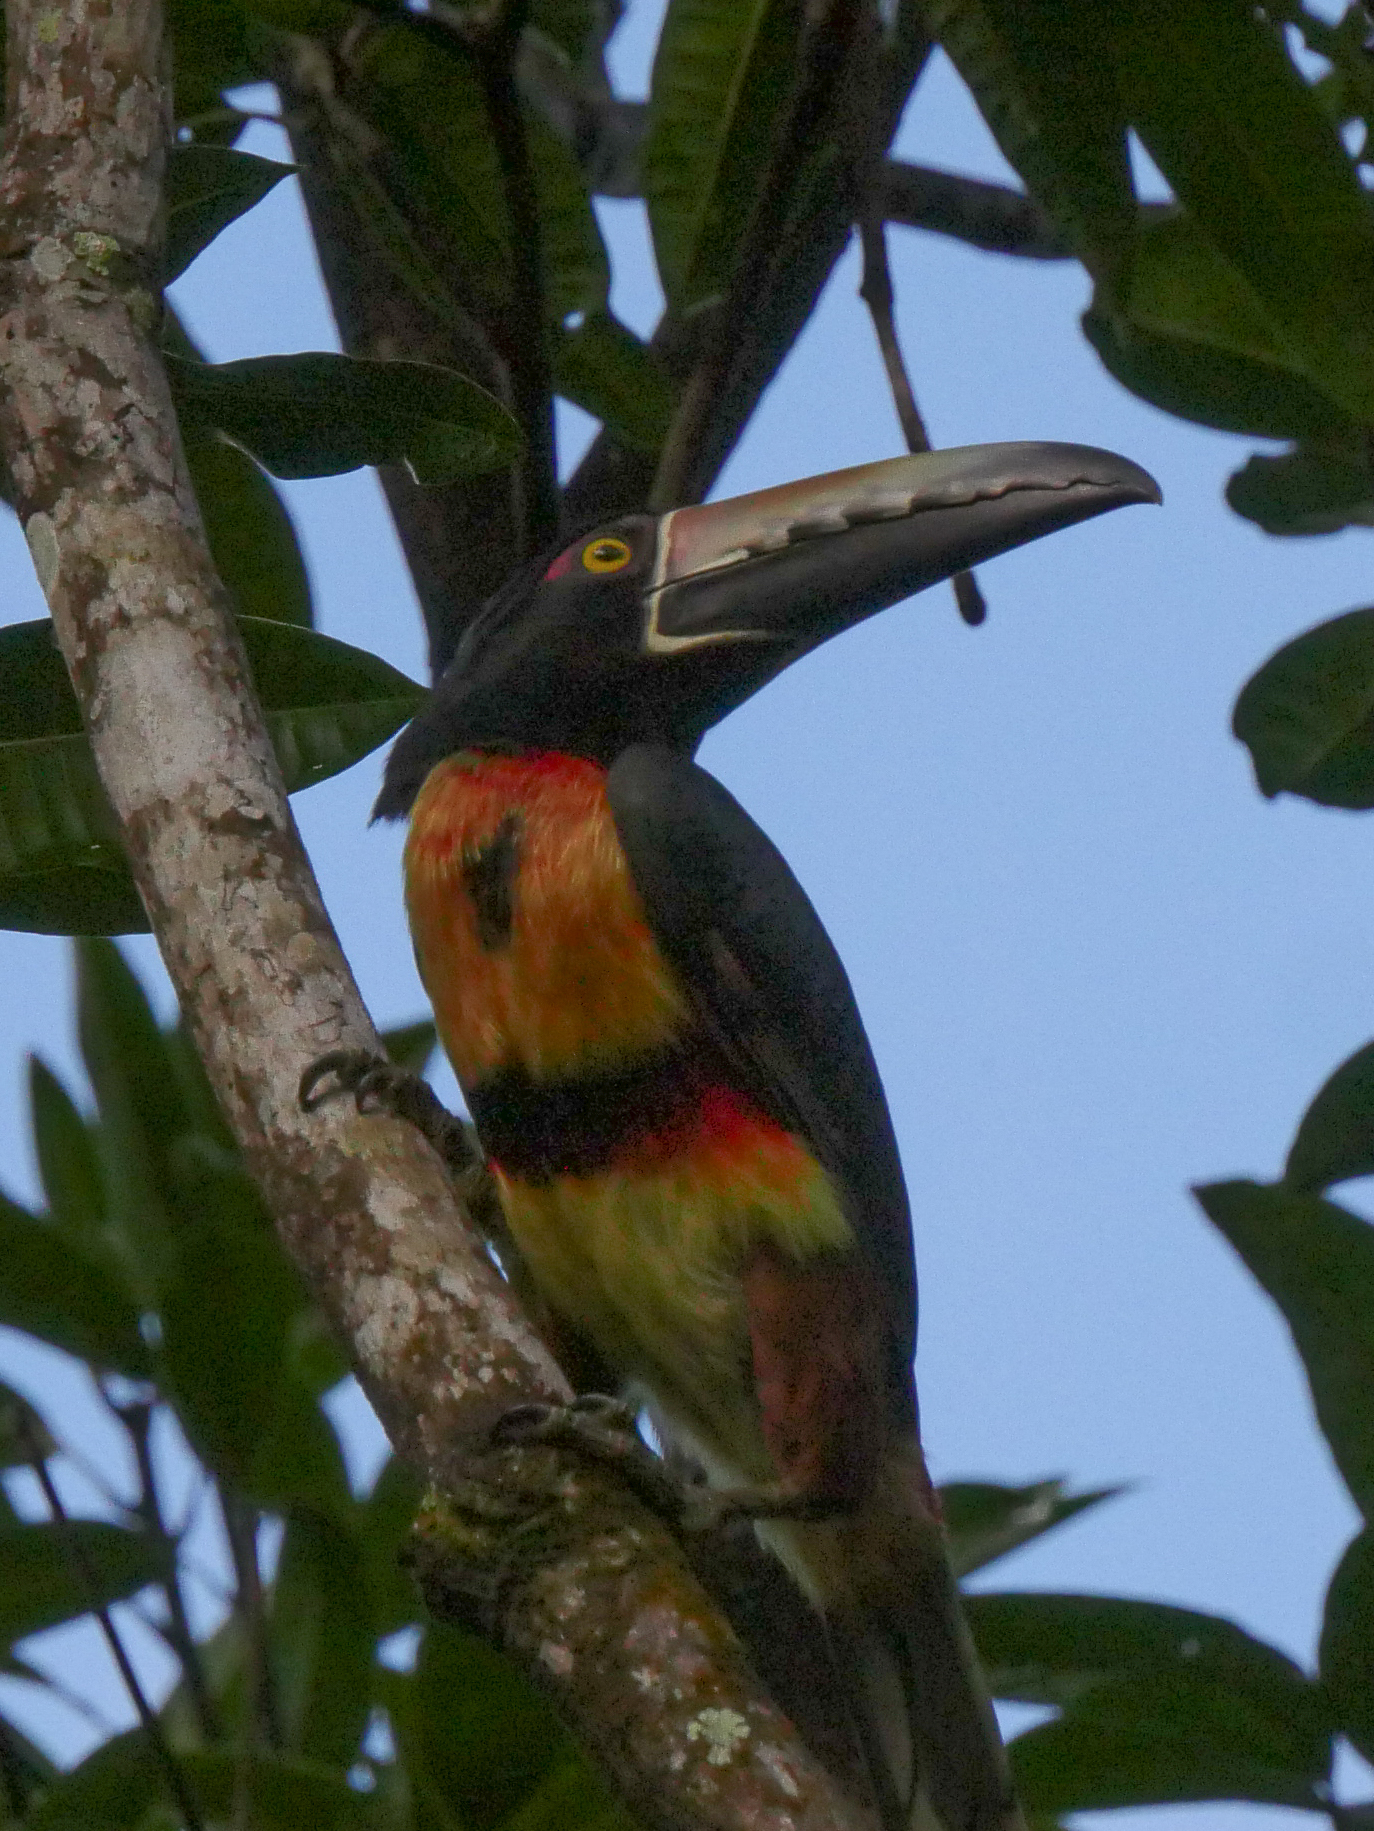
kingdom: Animalia
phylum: Chordata
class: Aves
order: Piciformes
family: Ramphastidae
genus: Pteroglossus
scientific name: Pteroglossus torquatus
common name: Collared aracari
